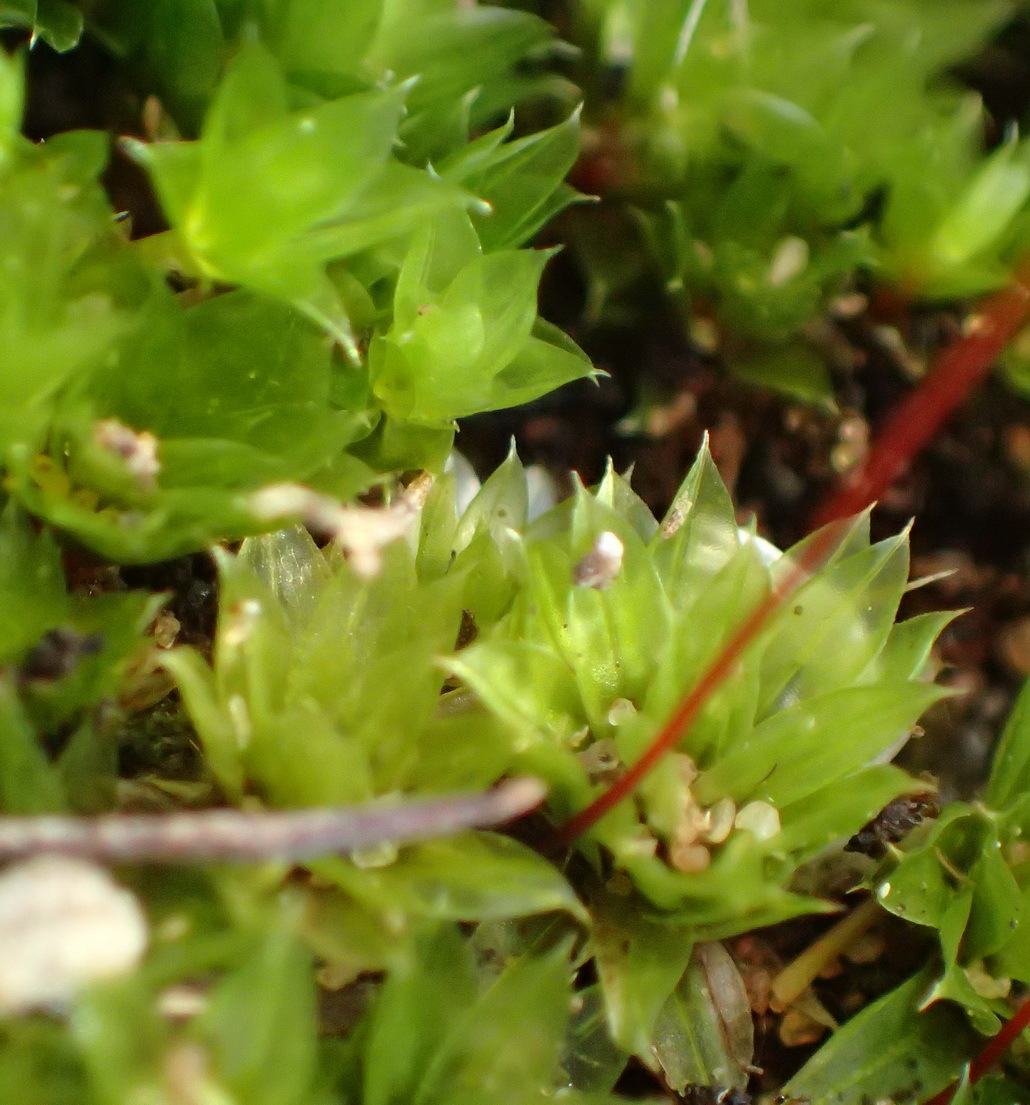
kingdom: Plantae
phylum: Bryophyta
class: Bryopsida
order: Bryales
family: Bryaceae
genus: Rosulabryum
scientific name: Rosulabryum canariense
